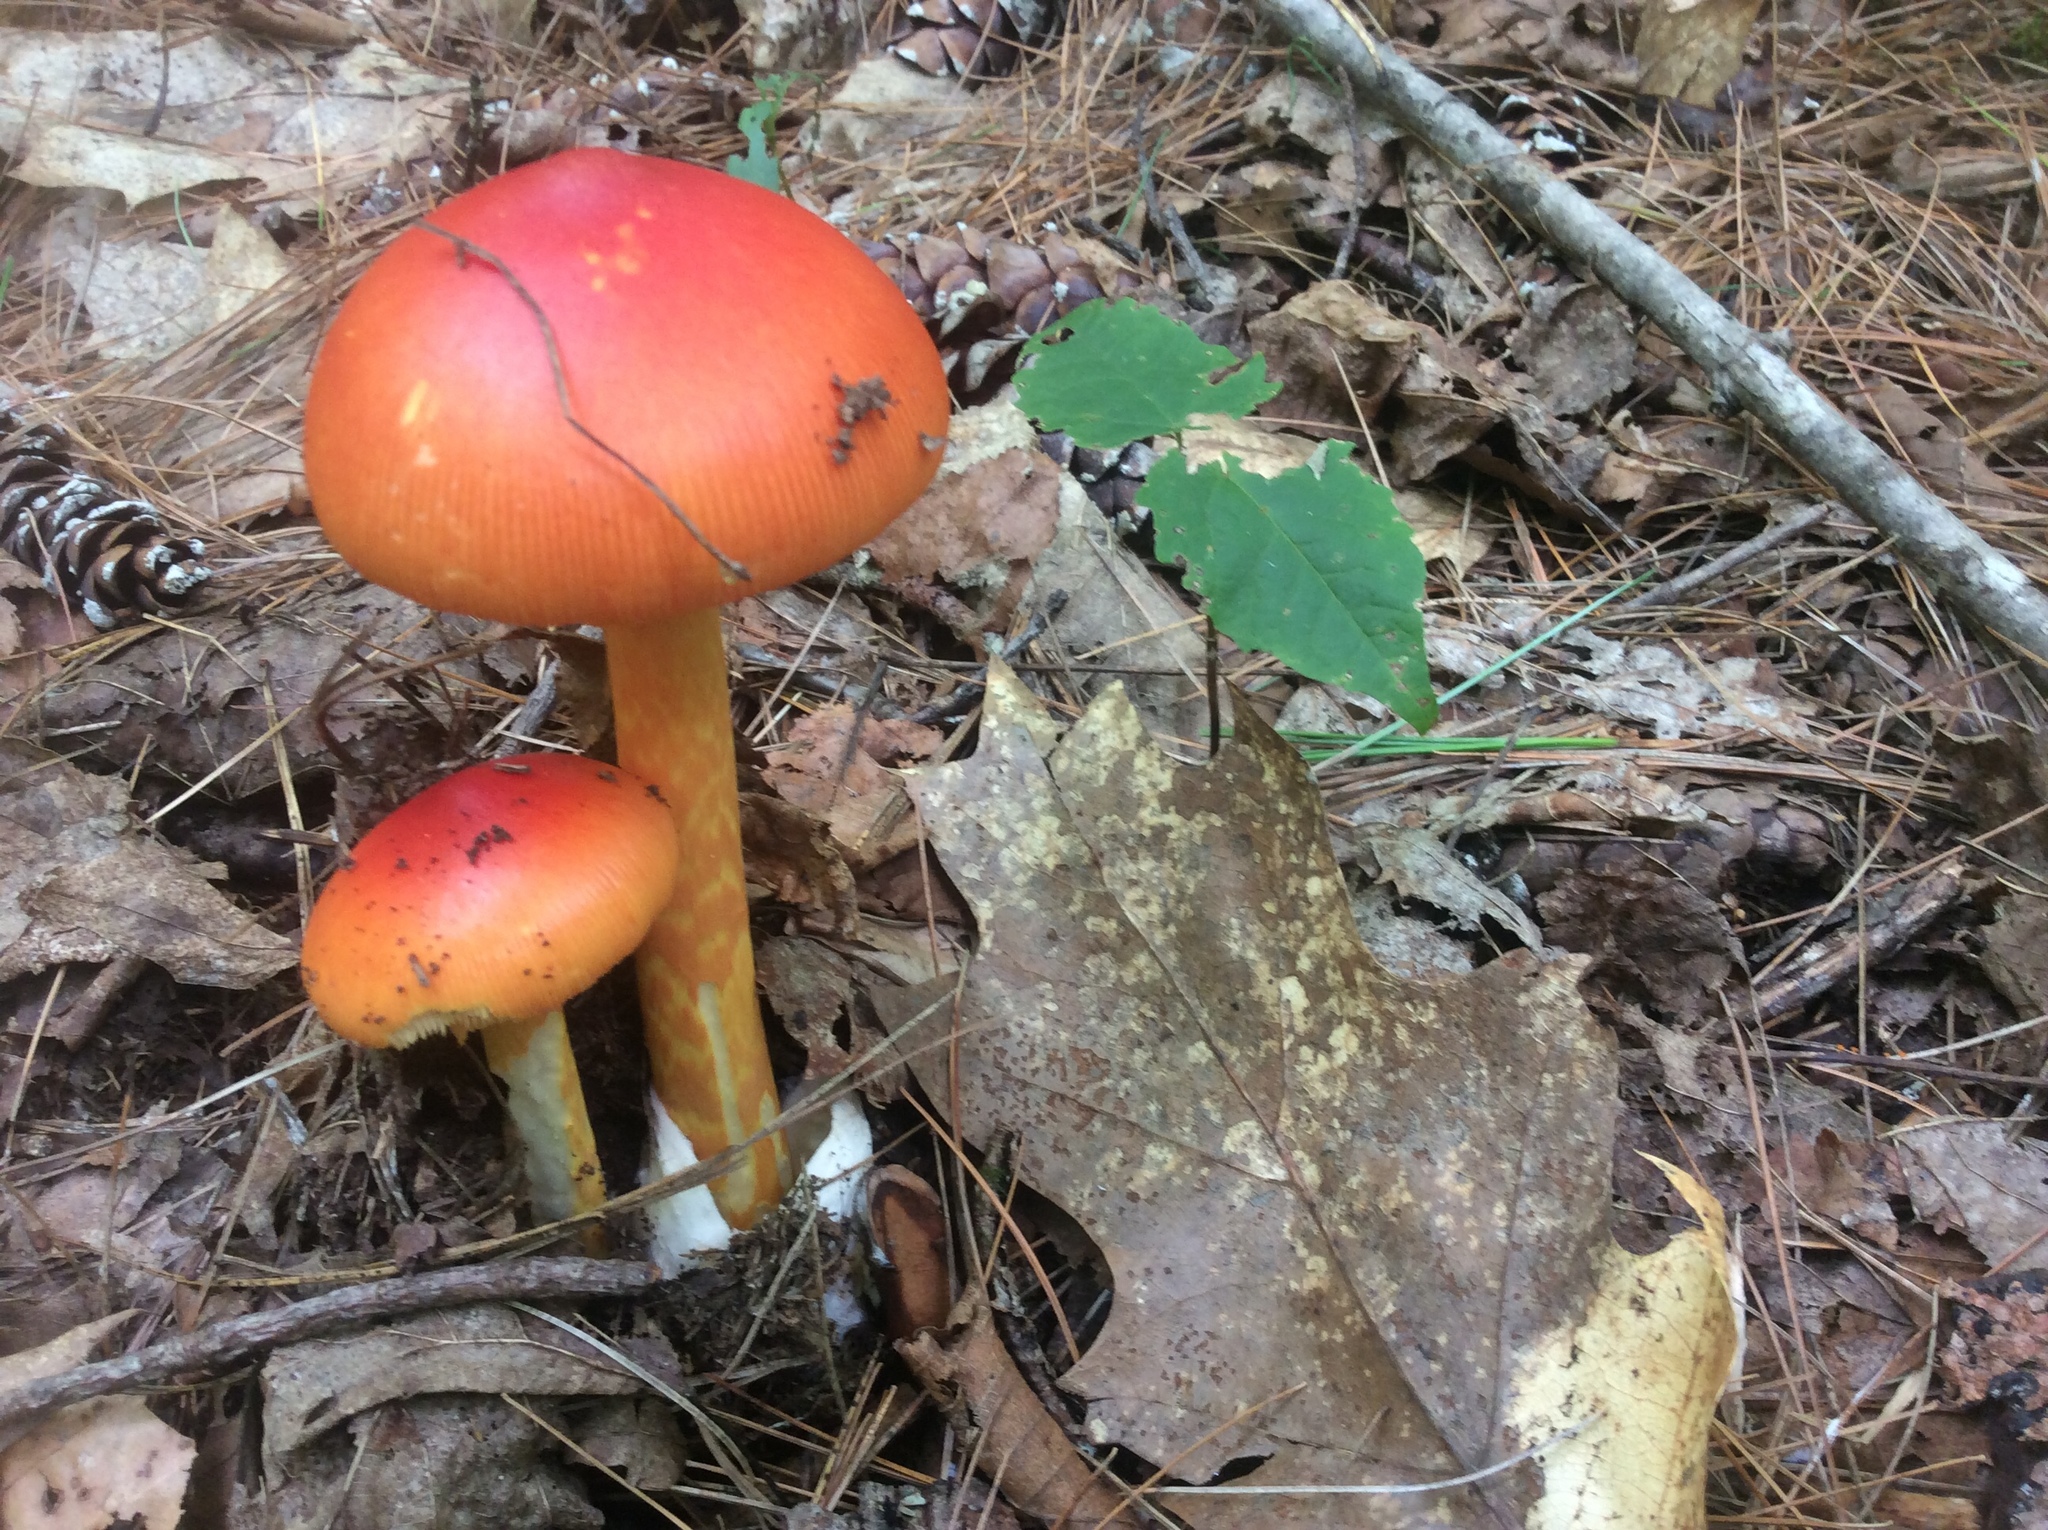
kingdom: Fungi
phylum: Basidiomycota
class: Agaricomycetes
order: Agaricales
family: Amanitaceae
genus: Amanita
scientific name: Amanita jacksonii
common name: Jackson's slender caesar
